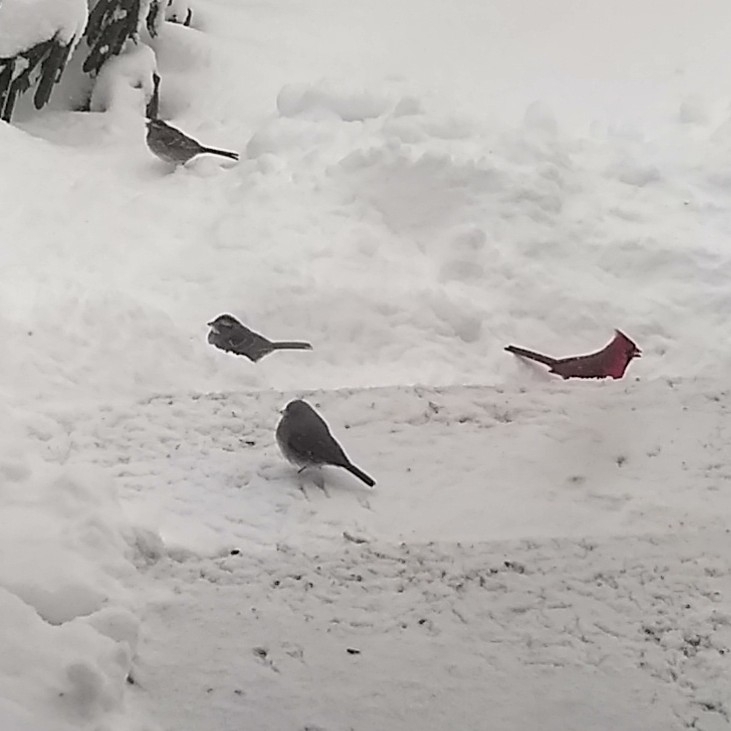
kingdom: Animalia
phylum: Chordata
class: Aves
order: Passeriformes
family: Passerellidae
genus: Zonotrichia
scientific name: Zonotrichia albicollis
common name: White-throated sparrow
